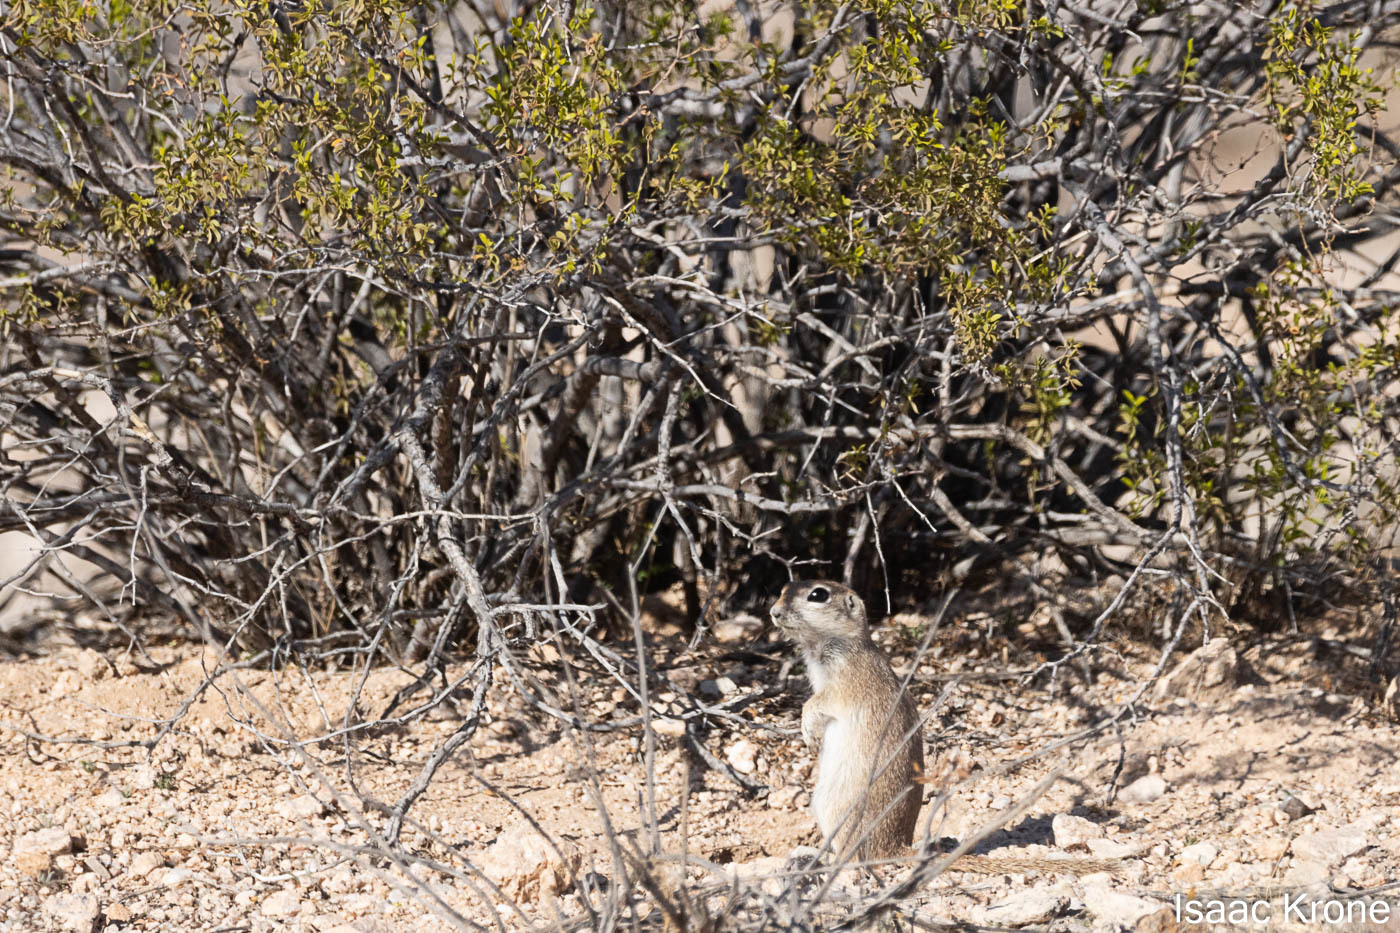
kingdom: Animalia
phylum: Chordata
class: Mammalia
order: Rodentia
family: Sciuridae
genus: Xerospermophilus
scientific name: Xerospermophilus tereticaudus
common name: Round-tailed ground squirrel
